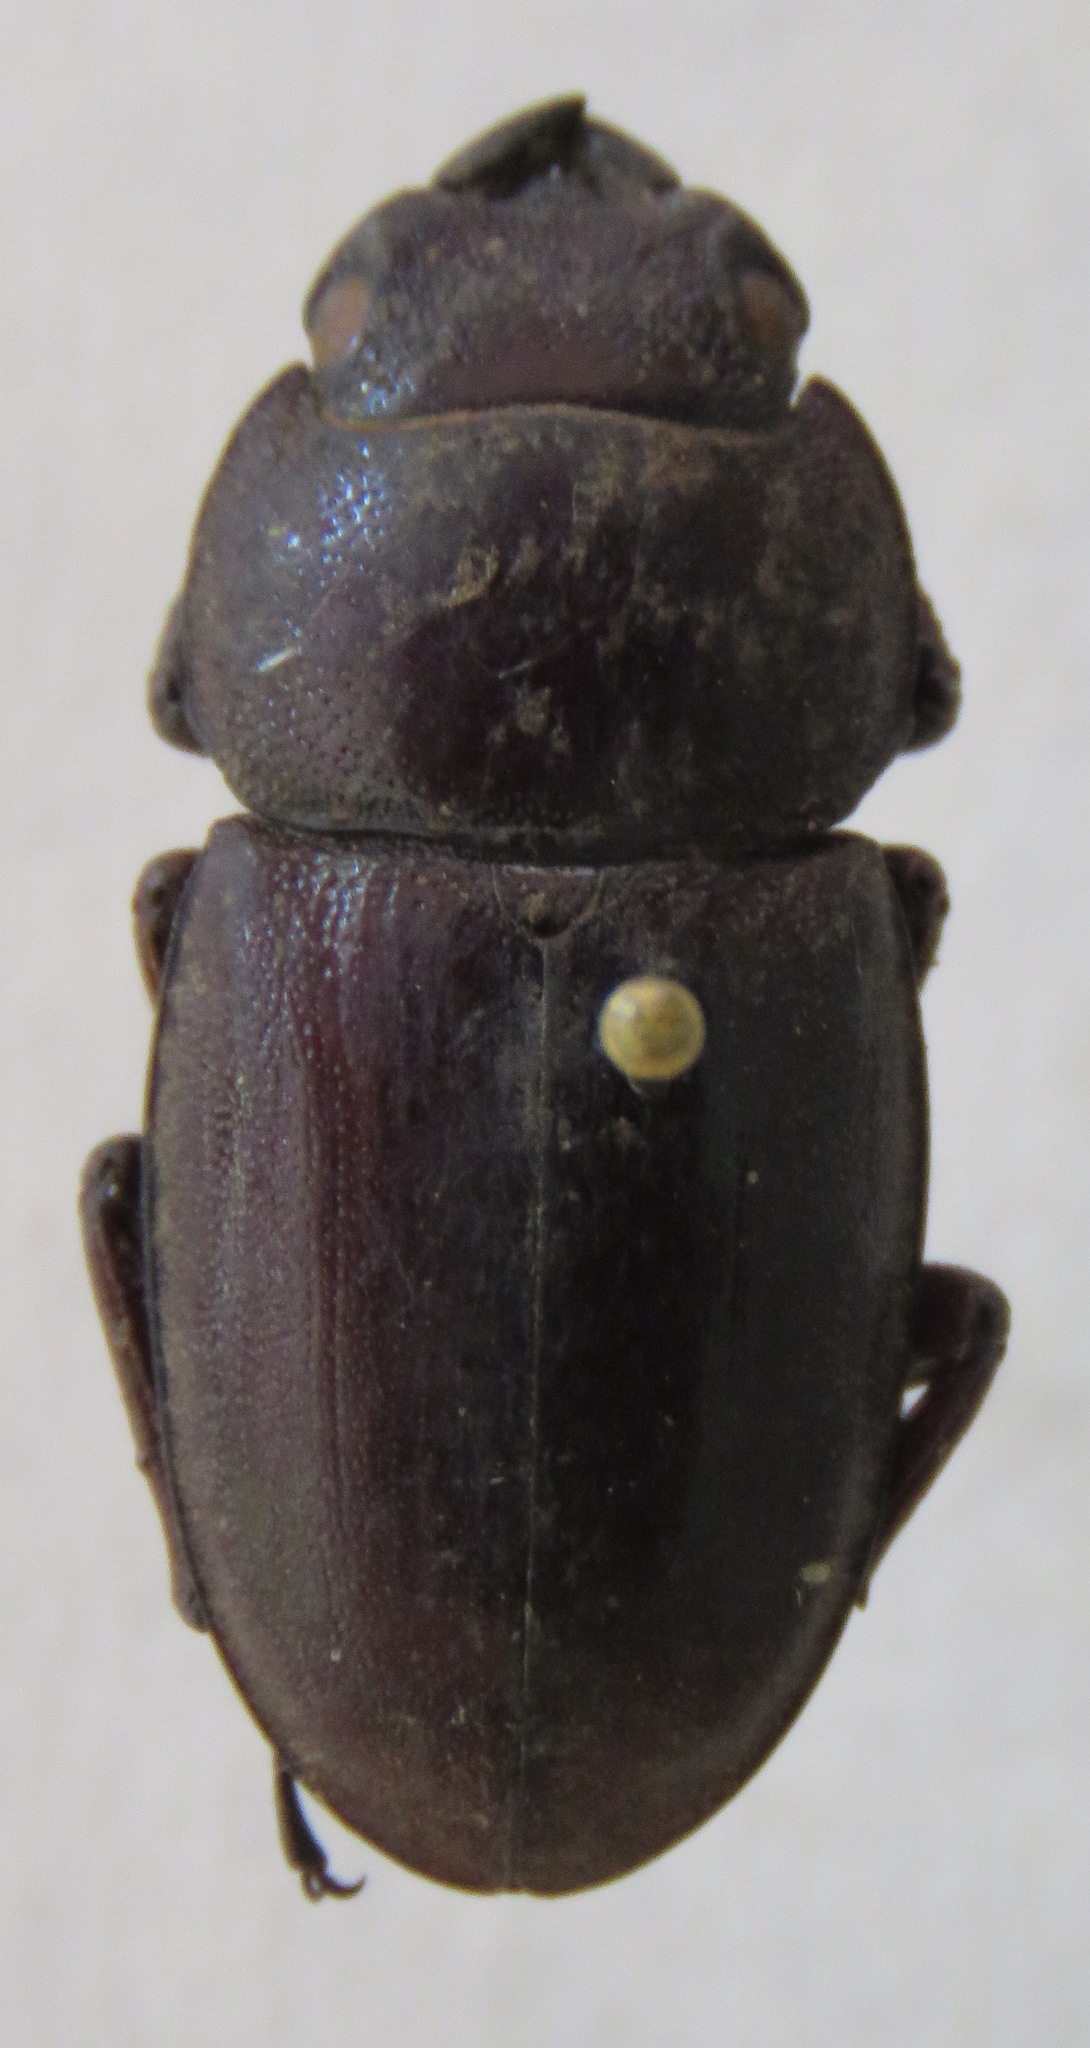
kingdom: Animalia
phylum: Arthropoda
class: Insecta
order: Coleoptera
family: Lucanidae
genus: Dorcus
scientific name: Dorcus saiga
